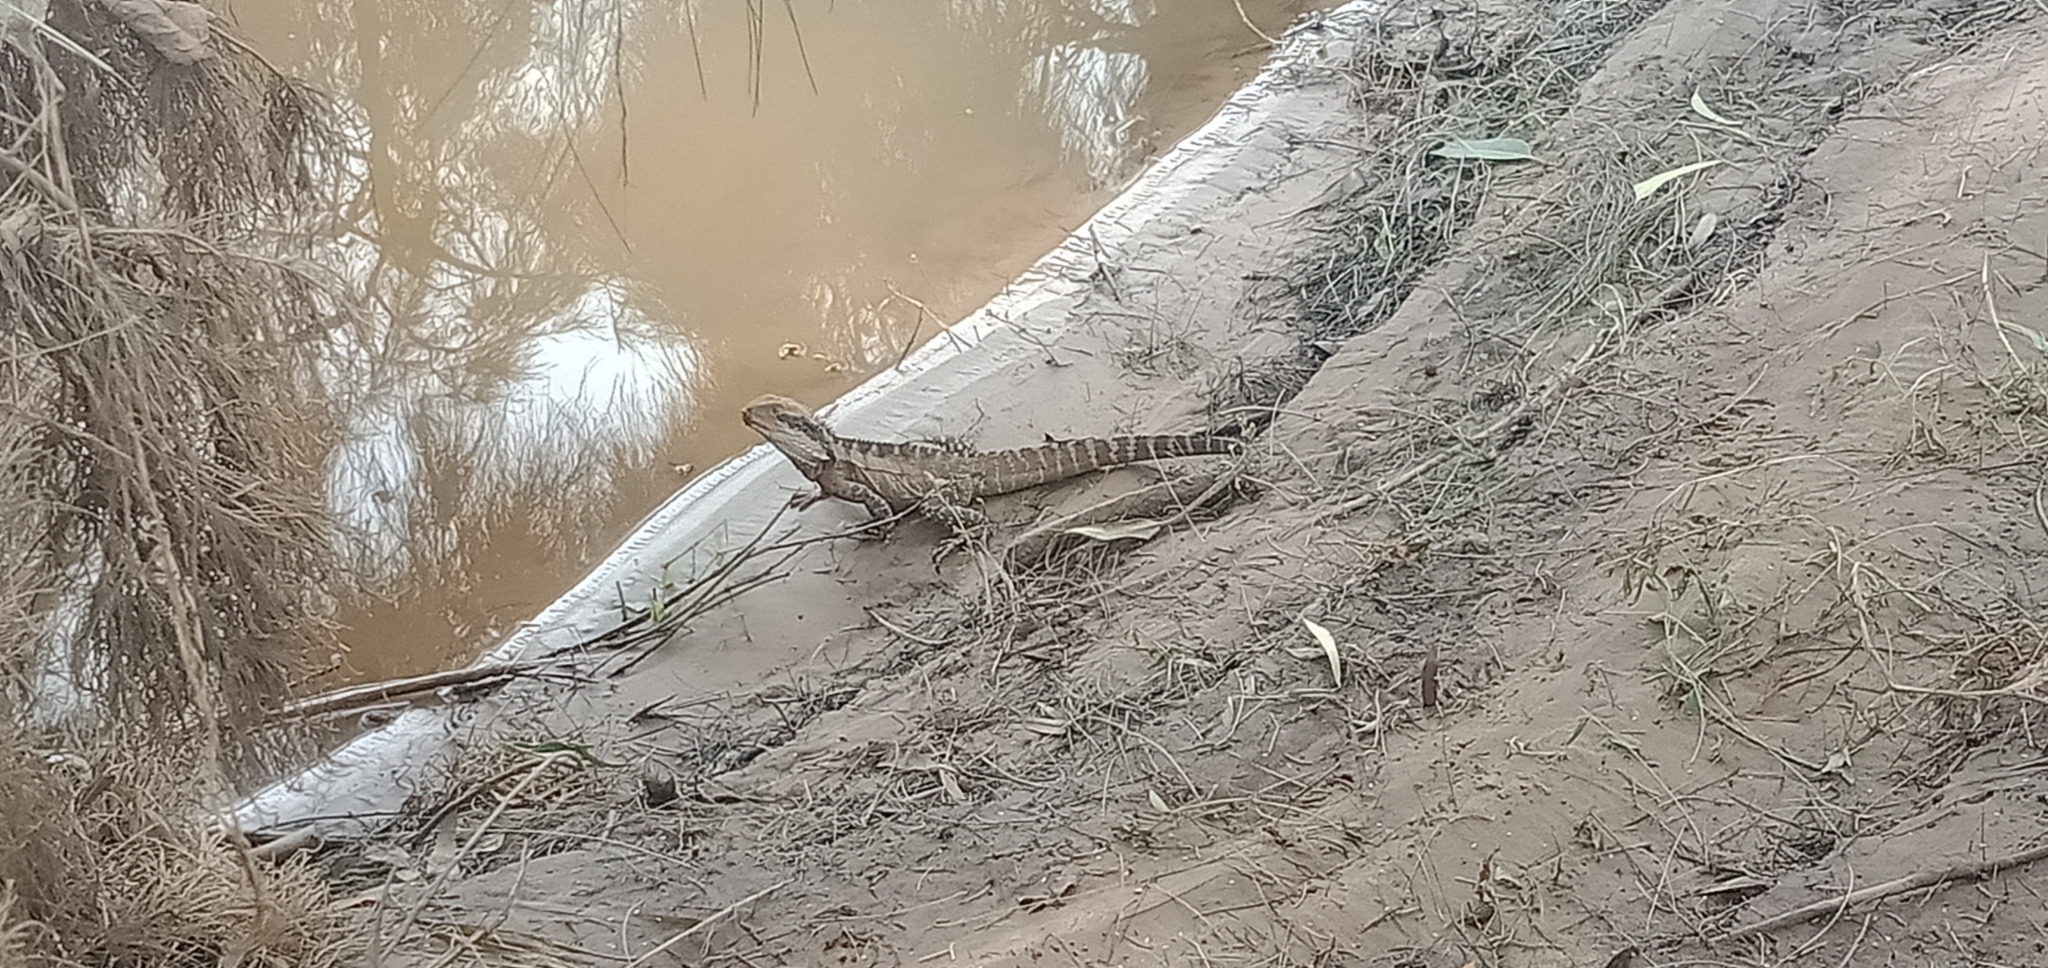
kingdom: Animalia
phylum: Chordata
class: Squamata
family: Agamidae
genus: Intellagama
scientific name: Intellagama lesueurii
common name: Eastern water dragon
